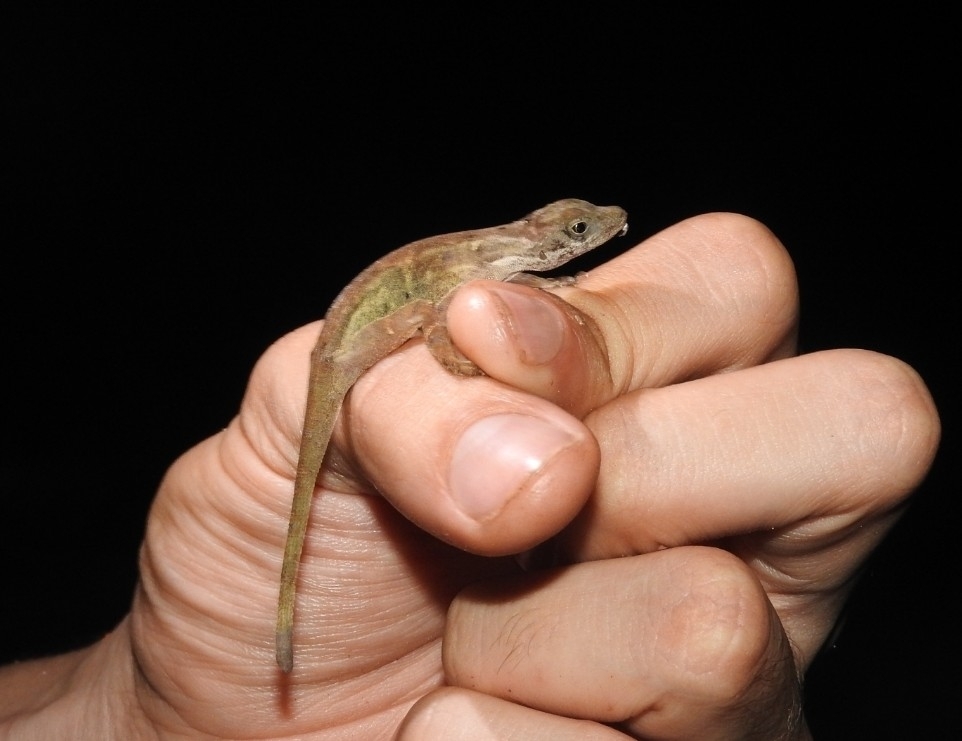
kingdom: Animalia
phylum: Chordata
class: Squamata
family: Dactyloidae
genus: Anolis
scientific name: Anolis rodriguezii
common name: Middle american smooth anole
